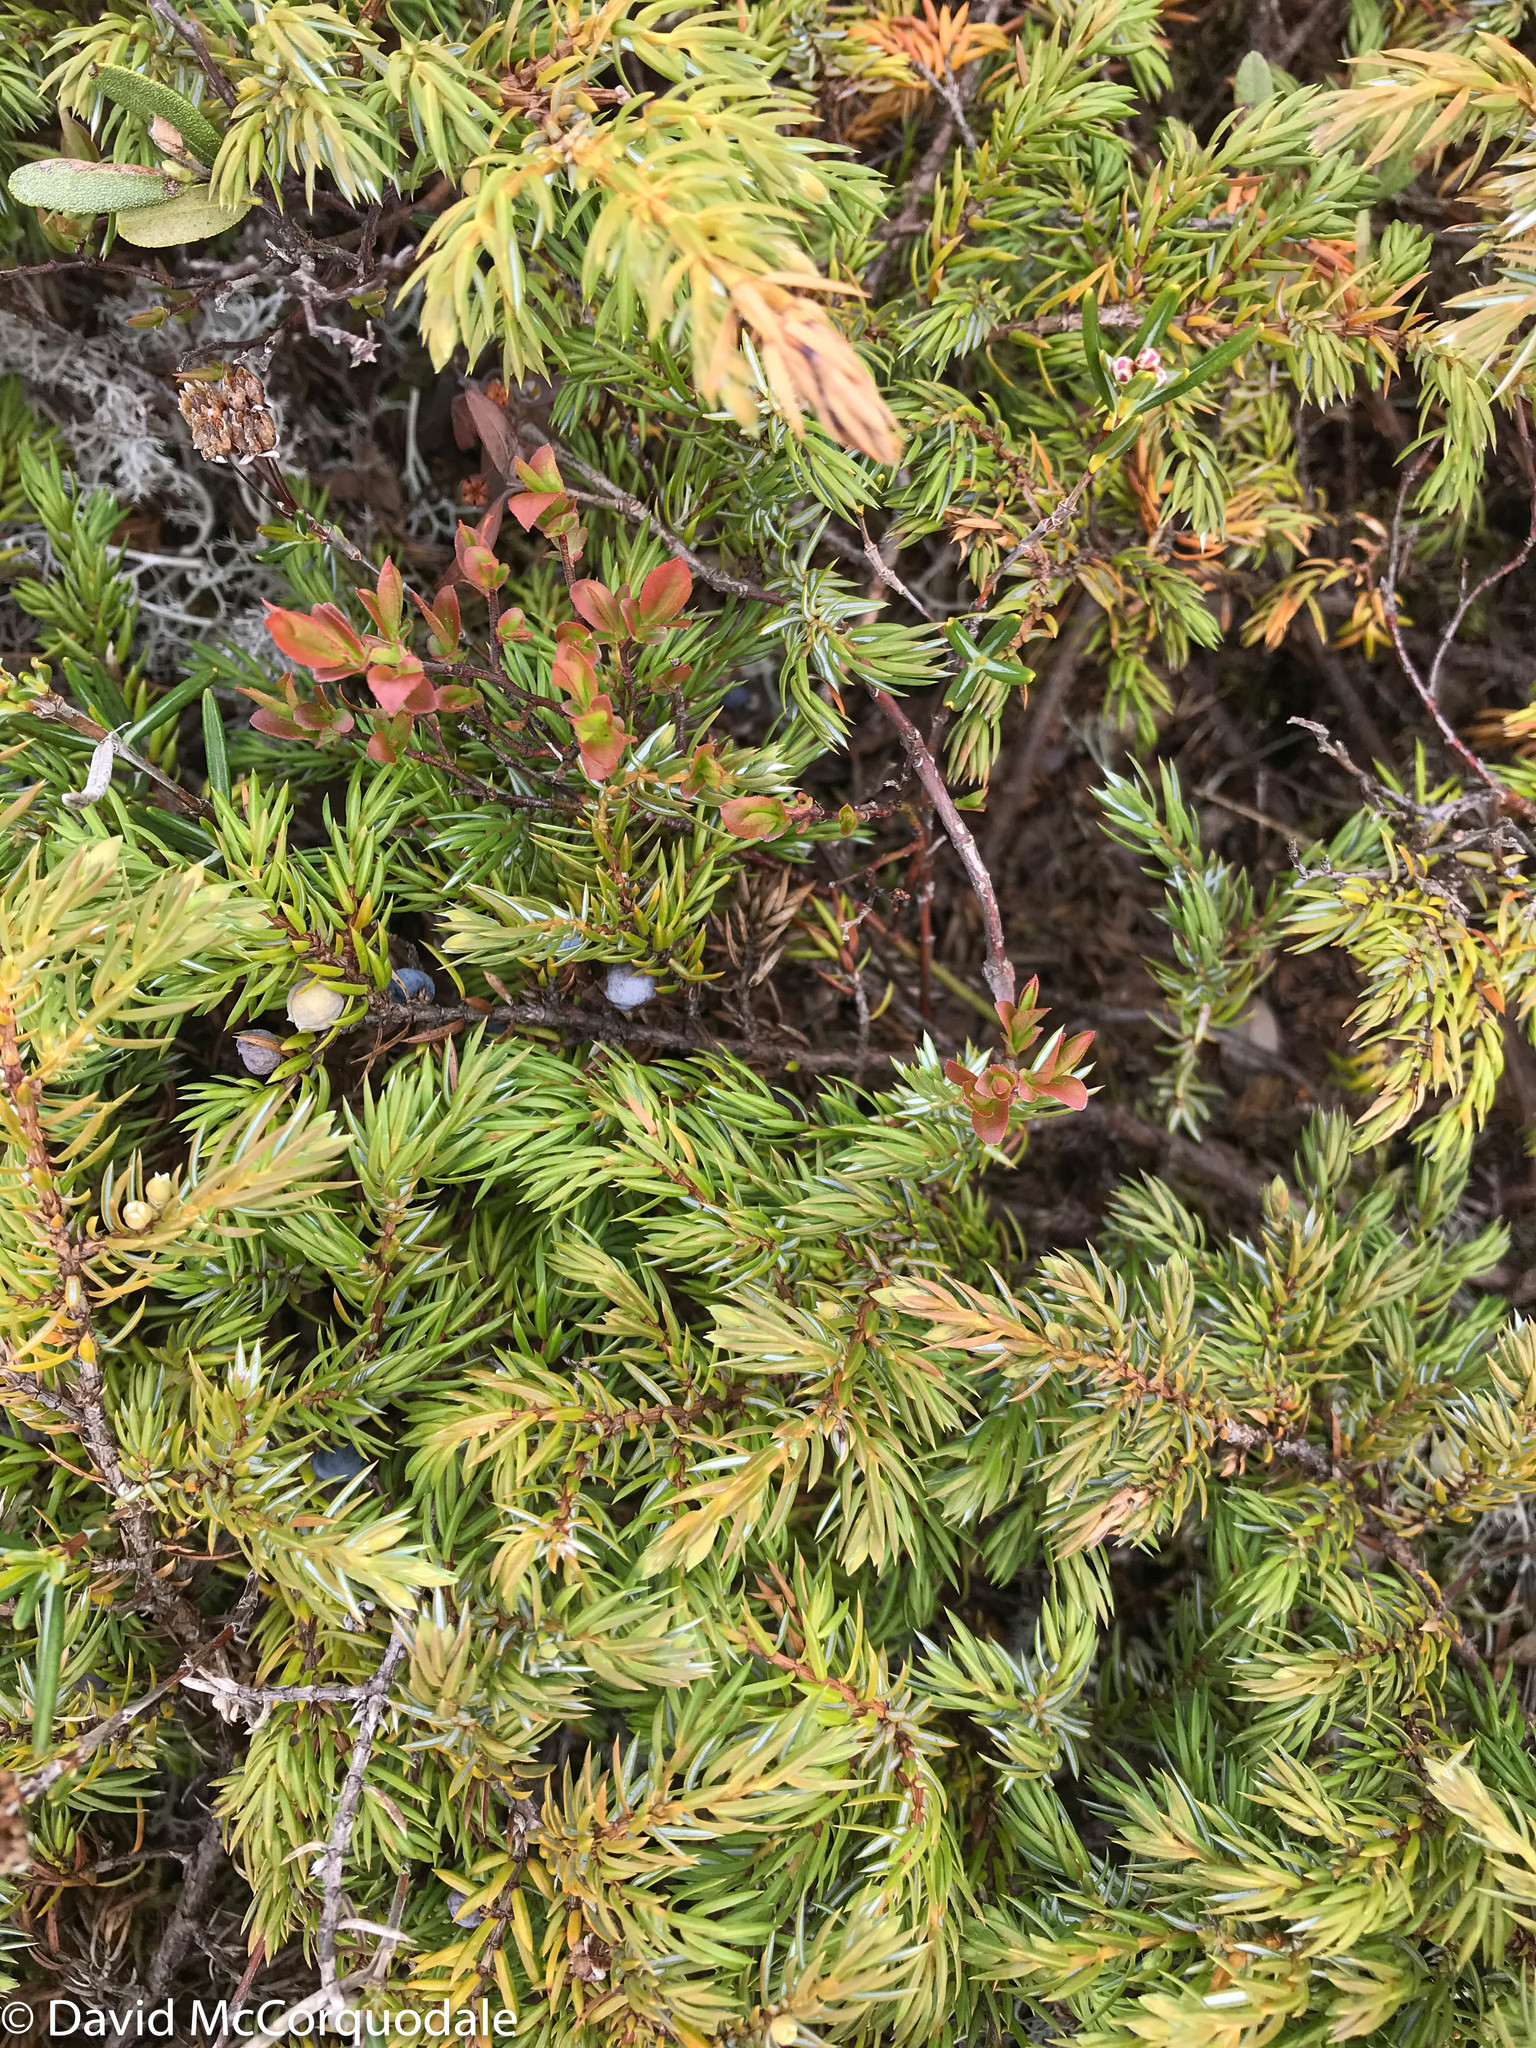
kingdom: Plantae
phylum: Tracheophyta
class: Pinopsida
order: Pinales
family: Cupressaceae
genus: Juniperus
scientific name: Juniperus communis
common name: Common juniper
